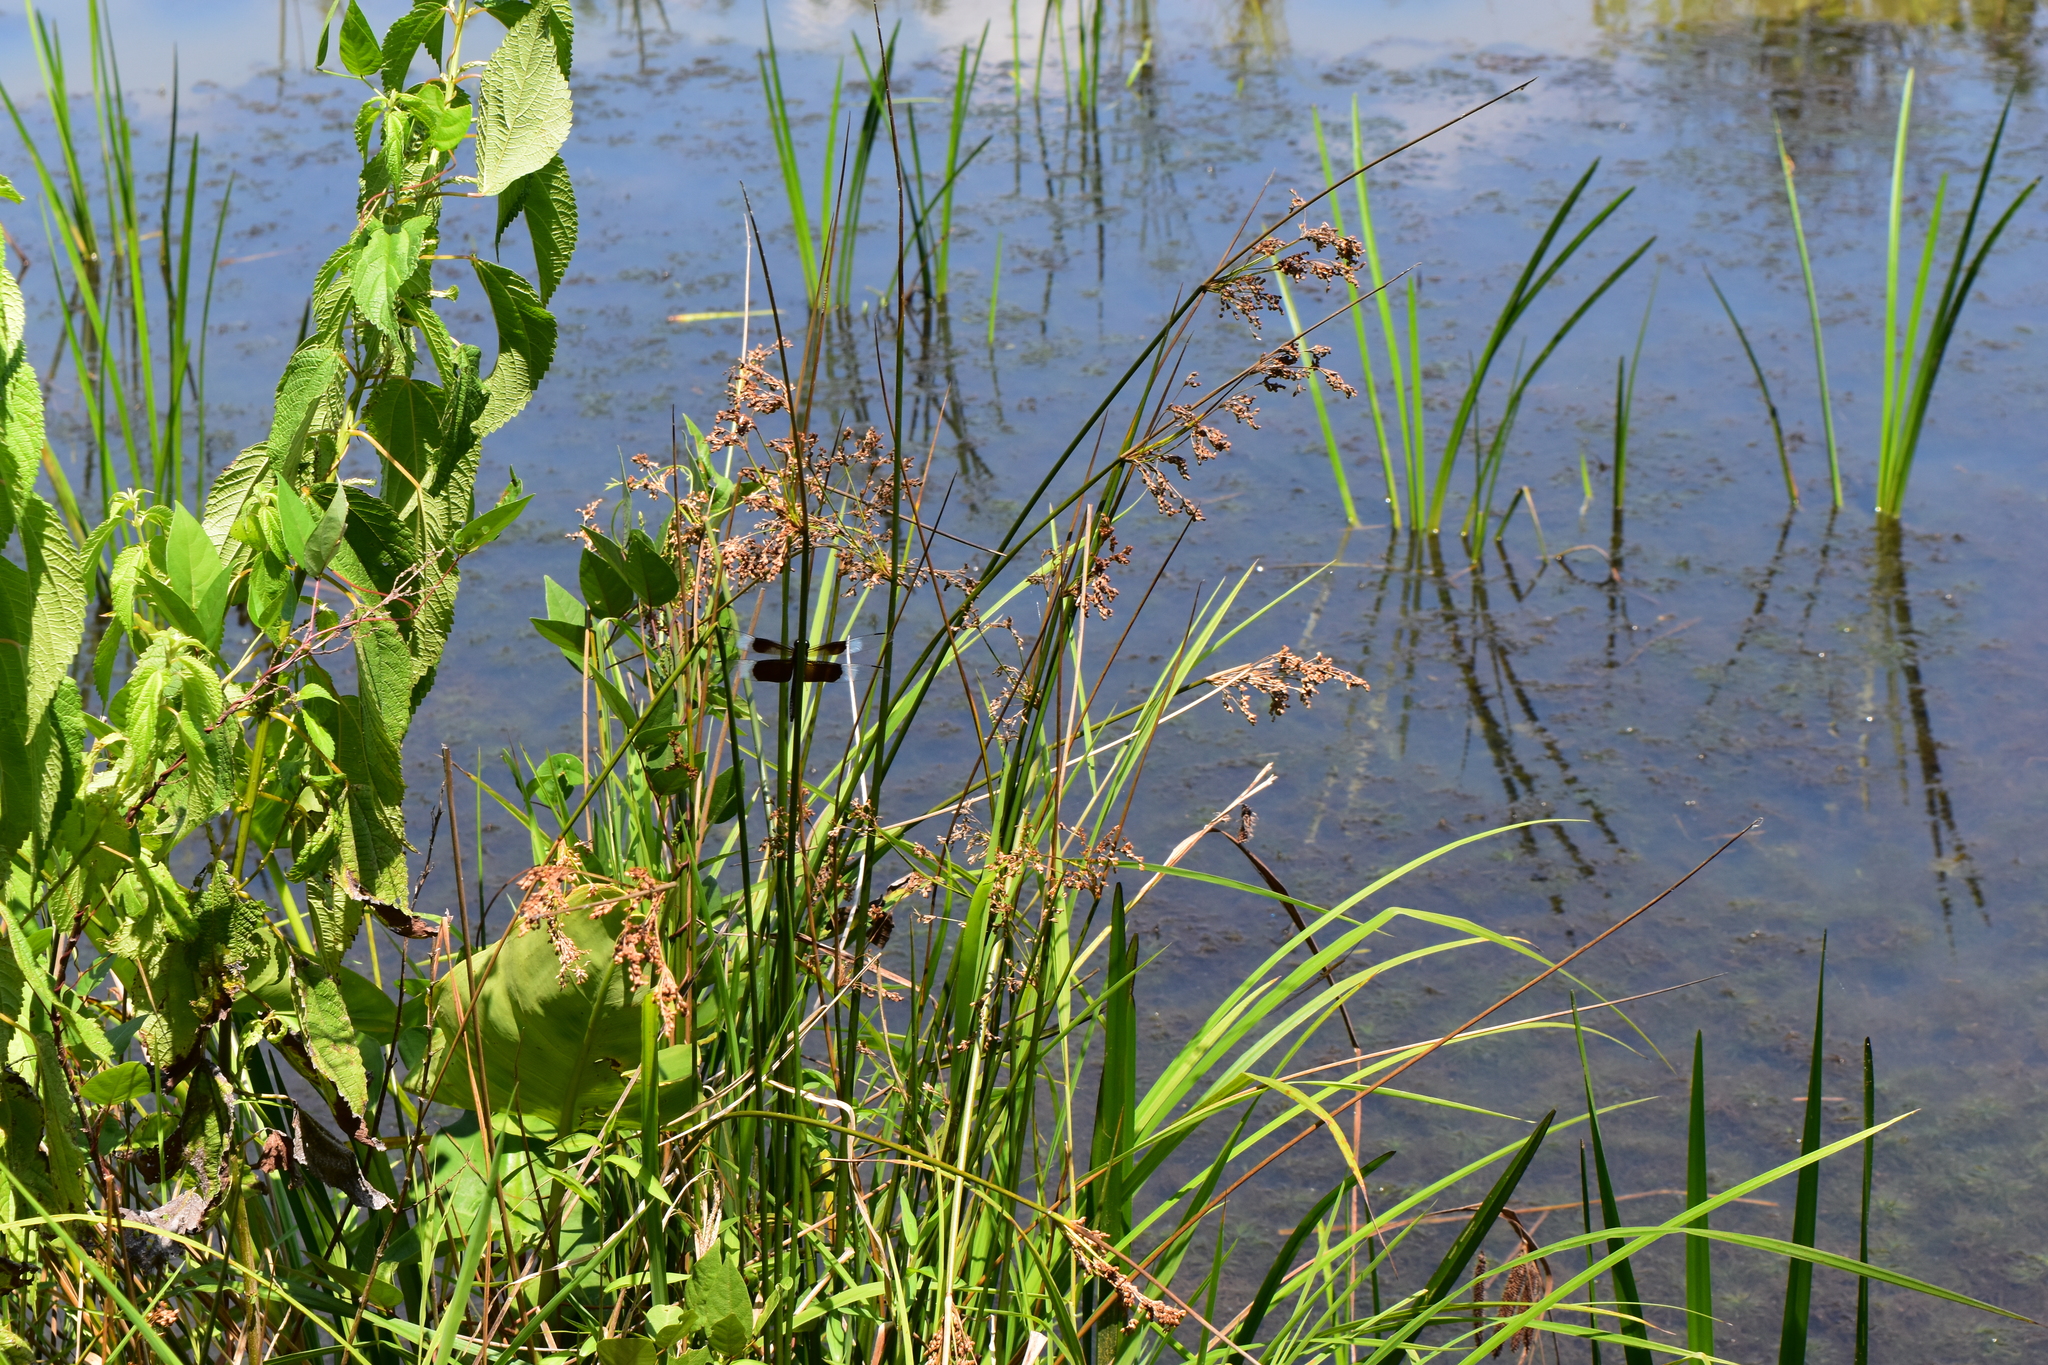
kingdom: Animalia
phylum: Arthropoda
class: Insecta
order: Odonata
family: Libellulidae
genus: Libellula
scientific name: Libellula luctuosa
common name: Widow skimmer
